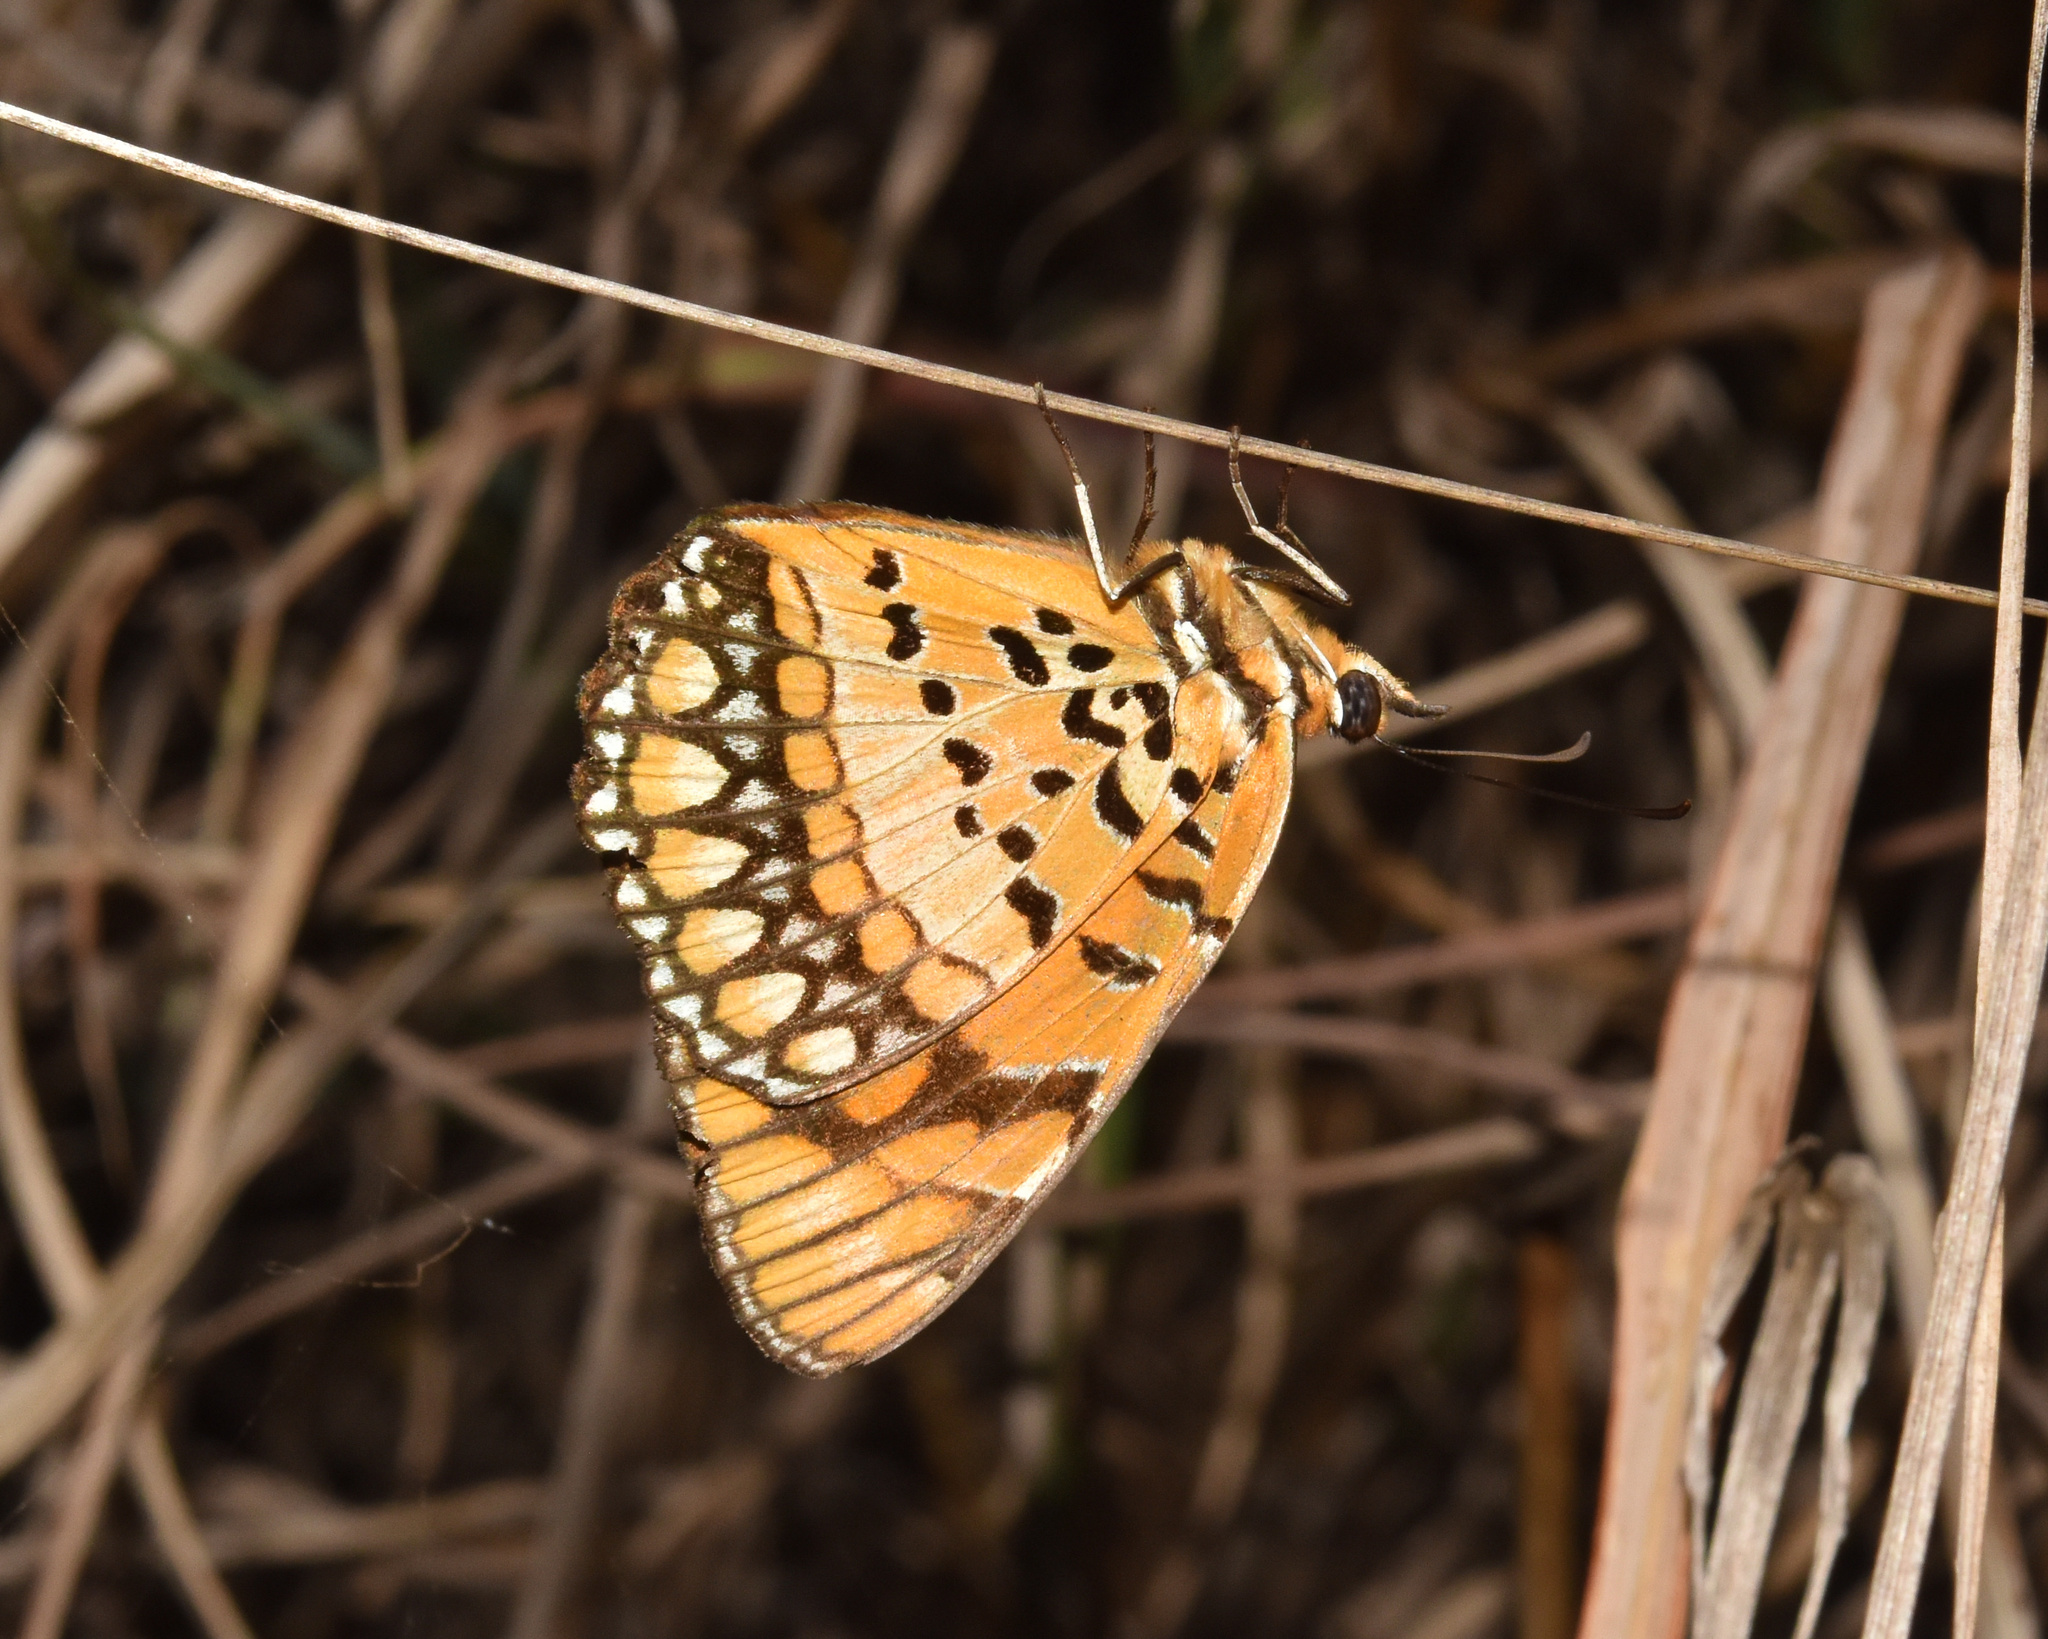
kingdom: Animalia
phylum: Arthropoda
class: Insecta
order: Lepidoptera
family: Nymphalidae
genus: Byblia
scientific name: Byblia acheloia
